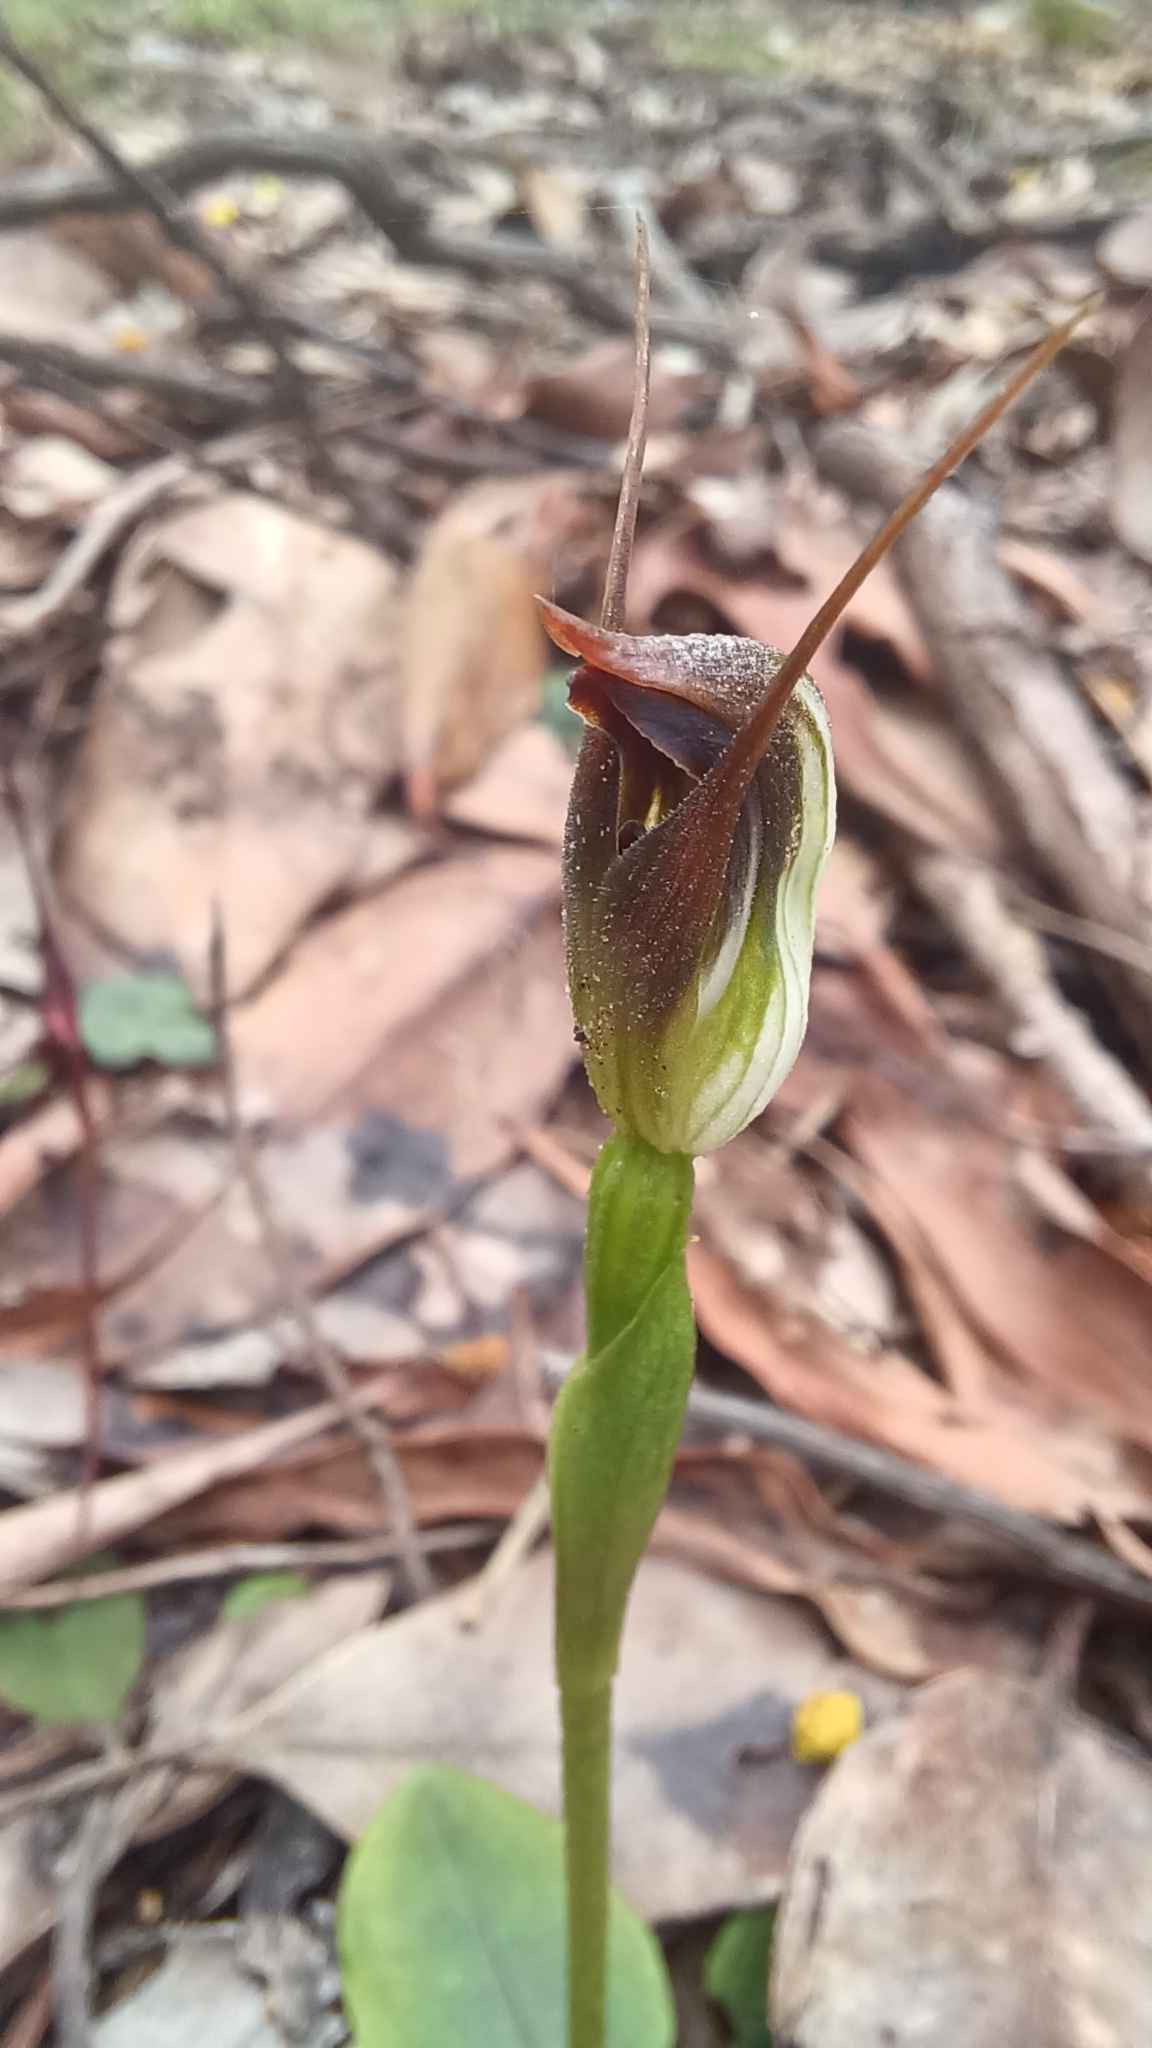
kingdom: Plantae
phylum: Tracheophyta
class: Liliopsida
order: Asparagales
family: Orchidaceae
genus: Pterostylis
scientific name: Pterostylis pedunculata
